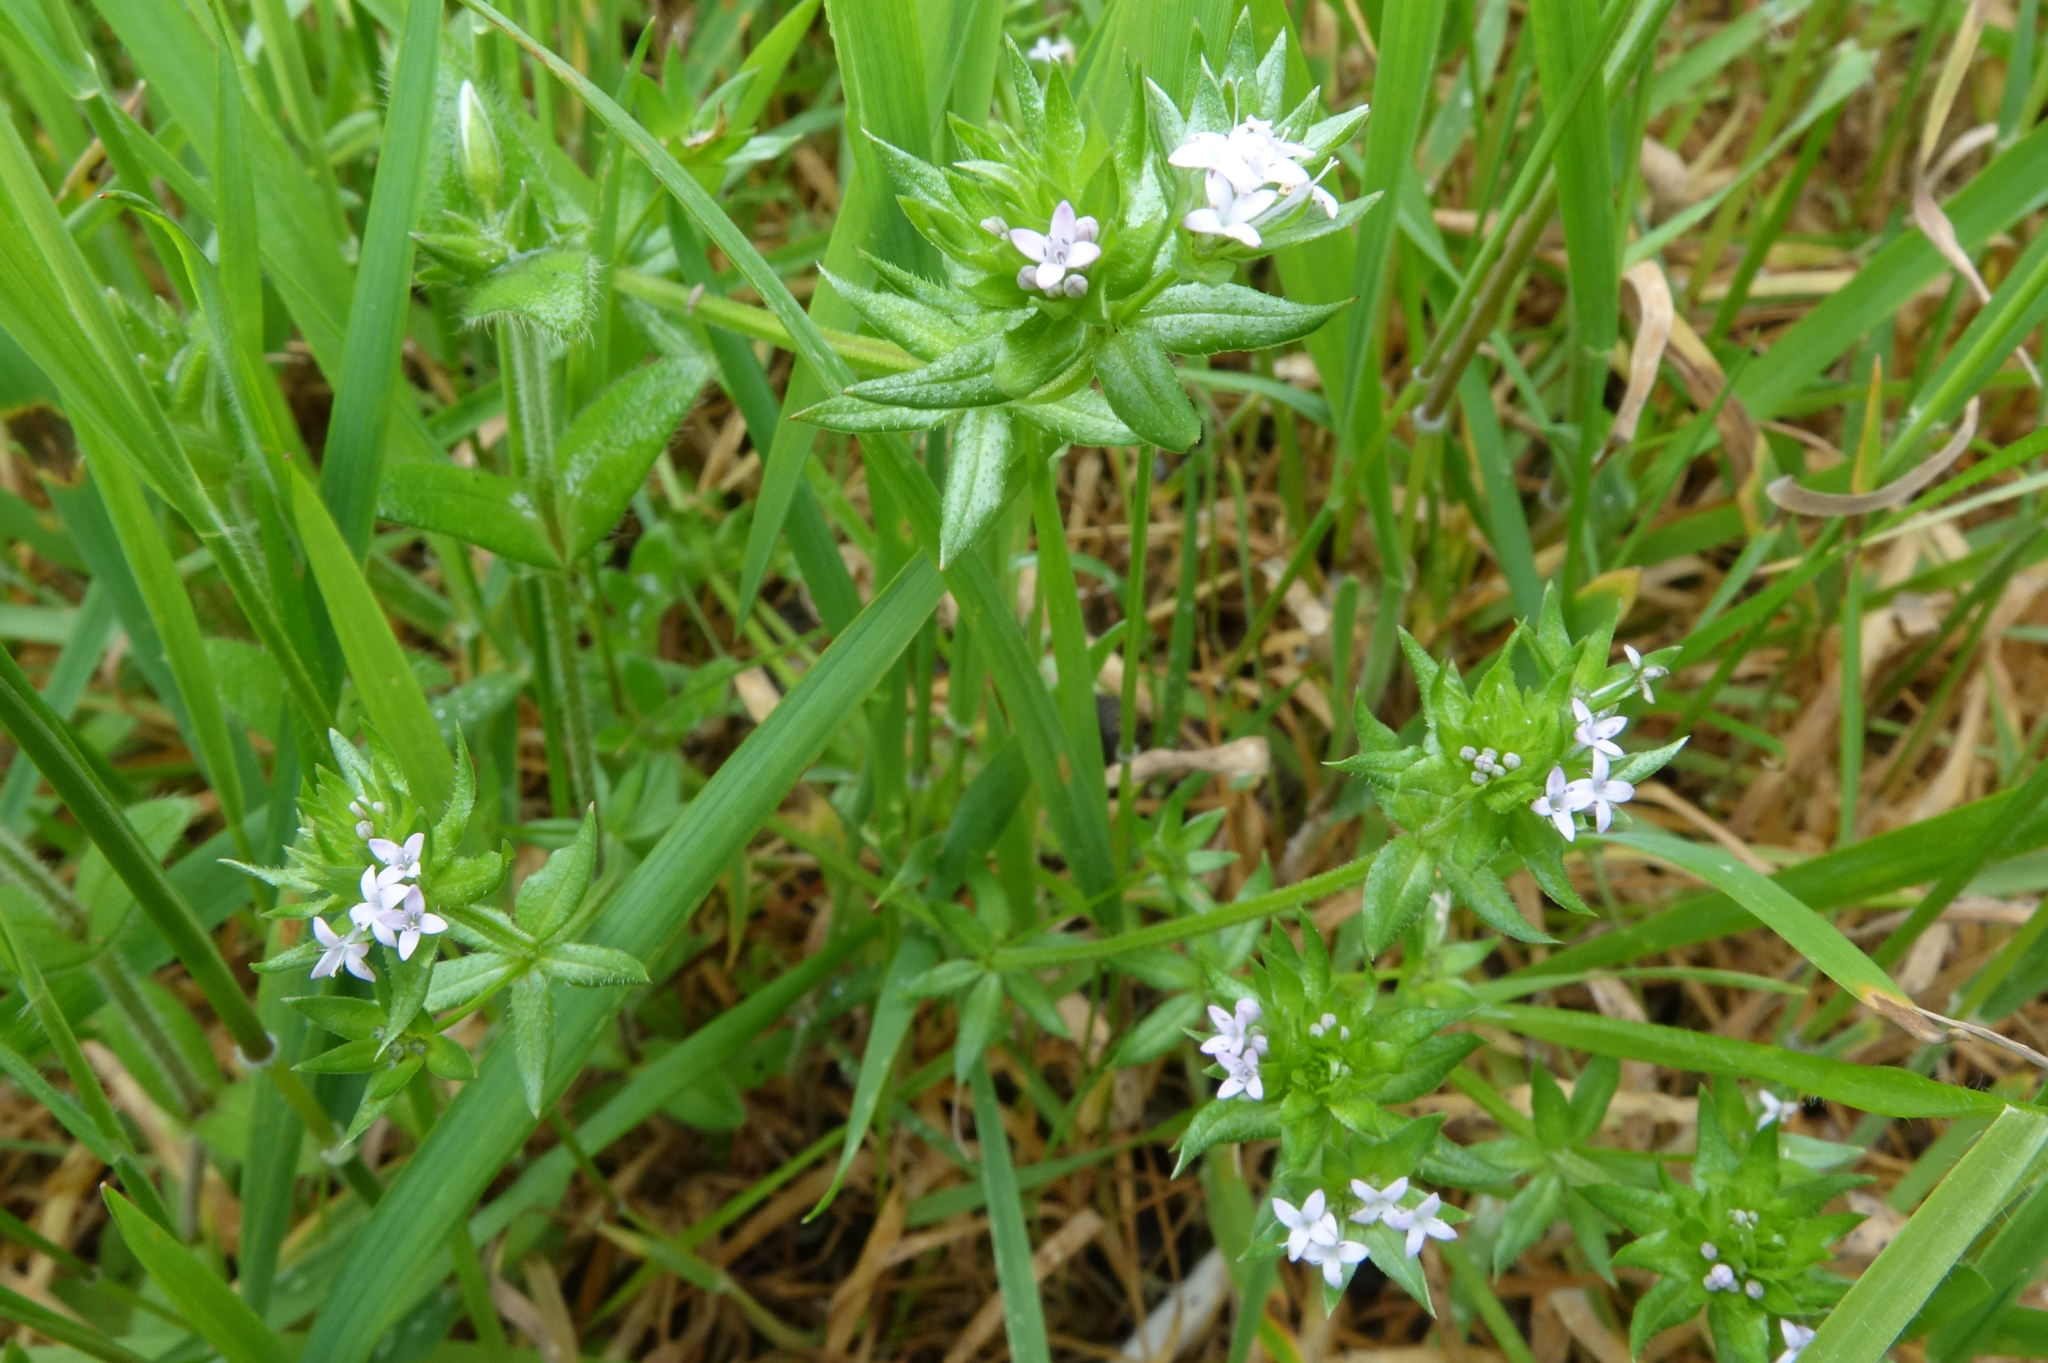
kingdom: Plantae
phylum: Tracheophyta
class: Magnoliopsida
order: Gentianales
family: Rubiaceae
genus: Sherardia
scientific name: Sherardia arvensis
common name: Field madder
